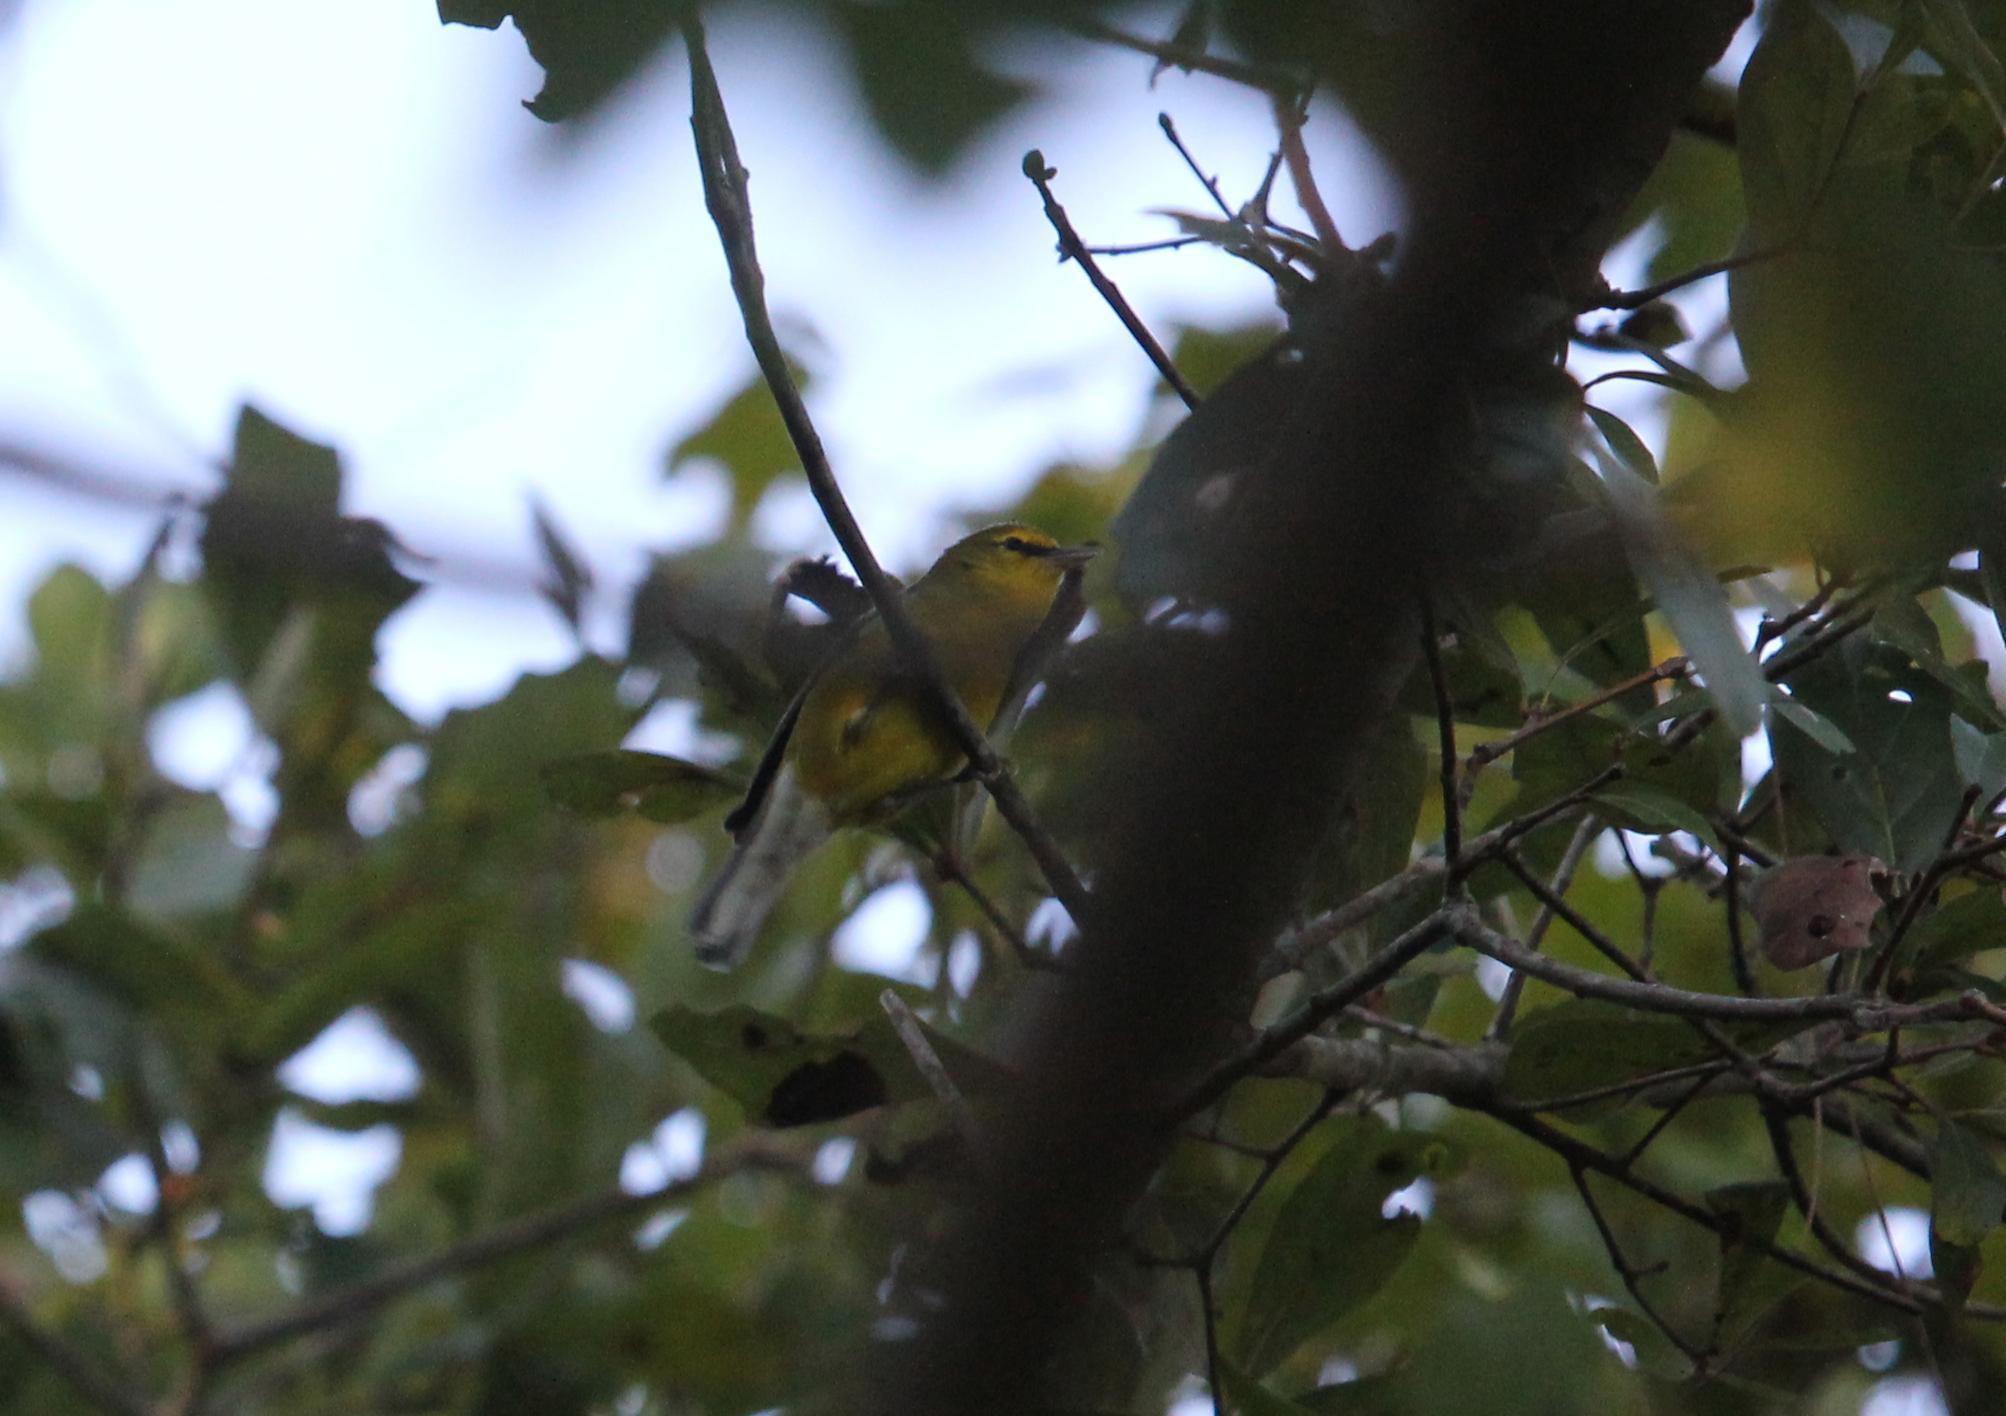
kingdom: Animalia
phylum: Chordata
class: Aves
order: Passeriformes
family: Parulidae
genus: Vermivora
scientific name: Vermivora cyanoptera
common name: Blue-winged warbler
